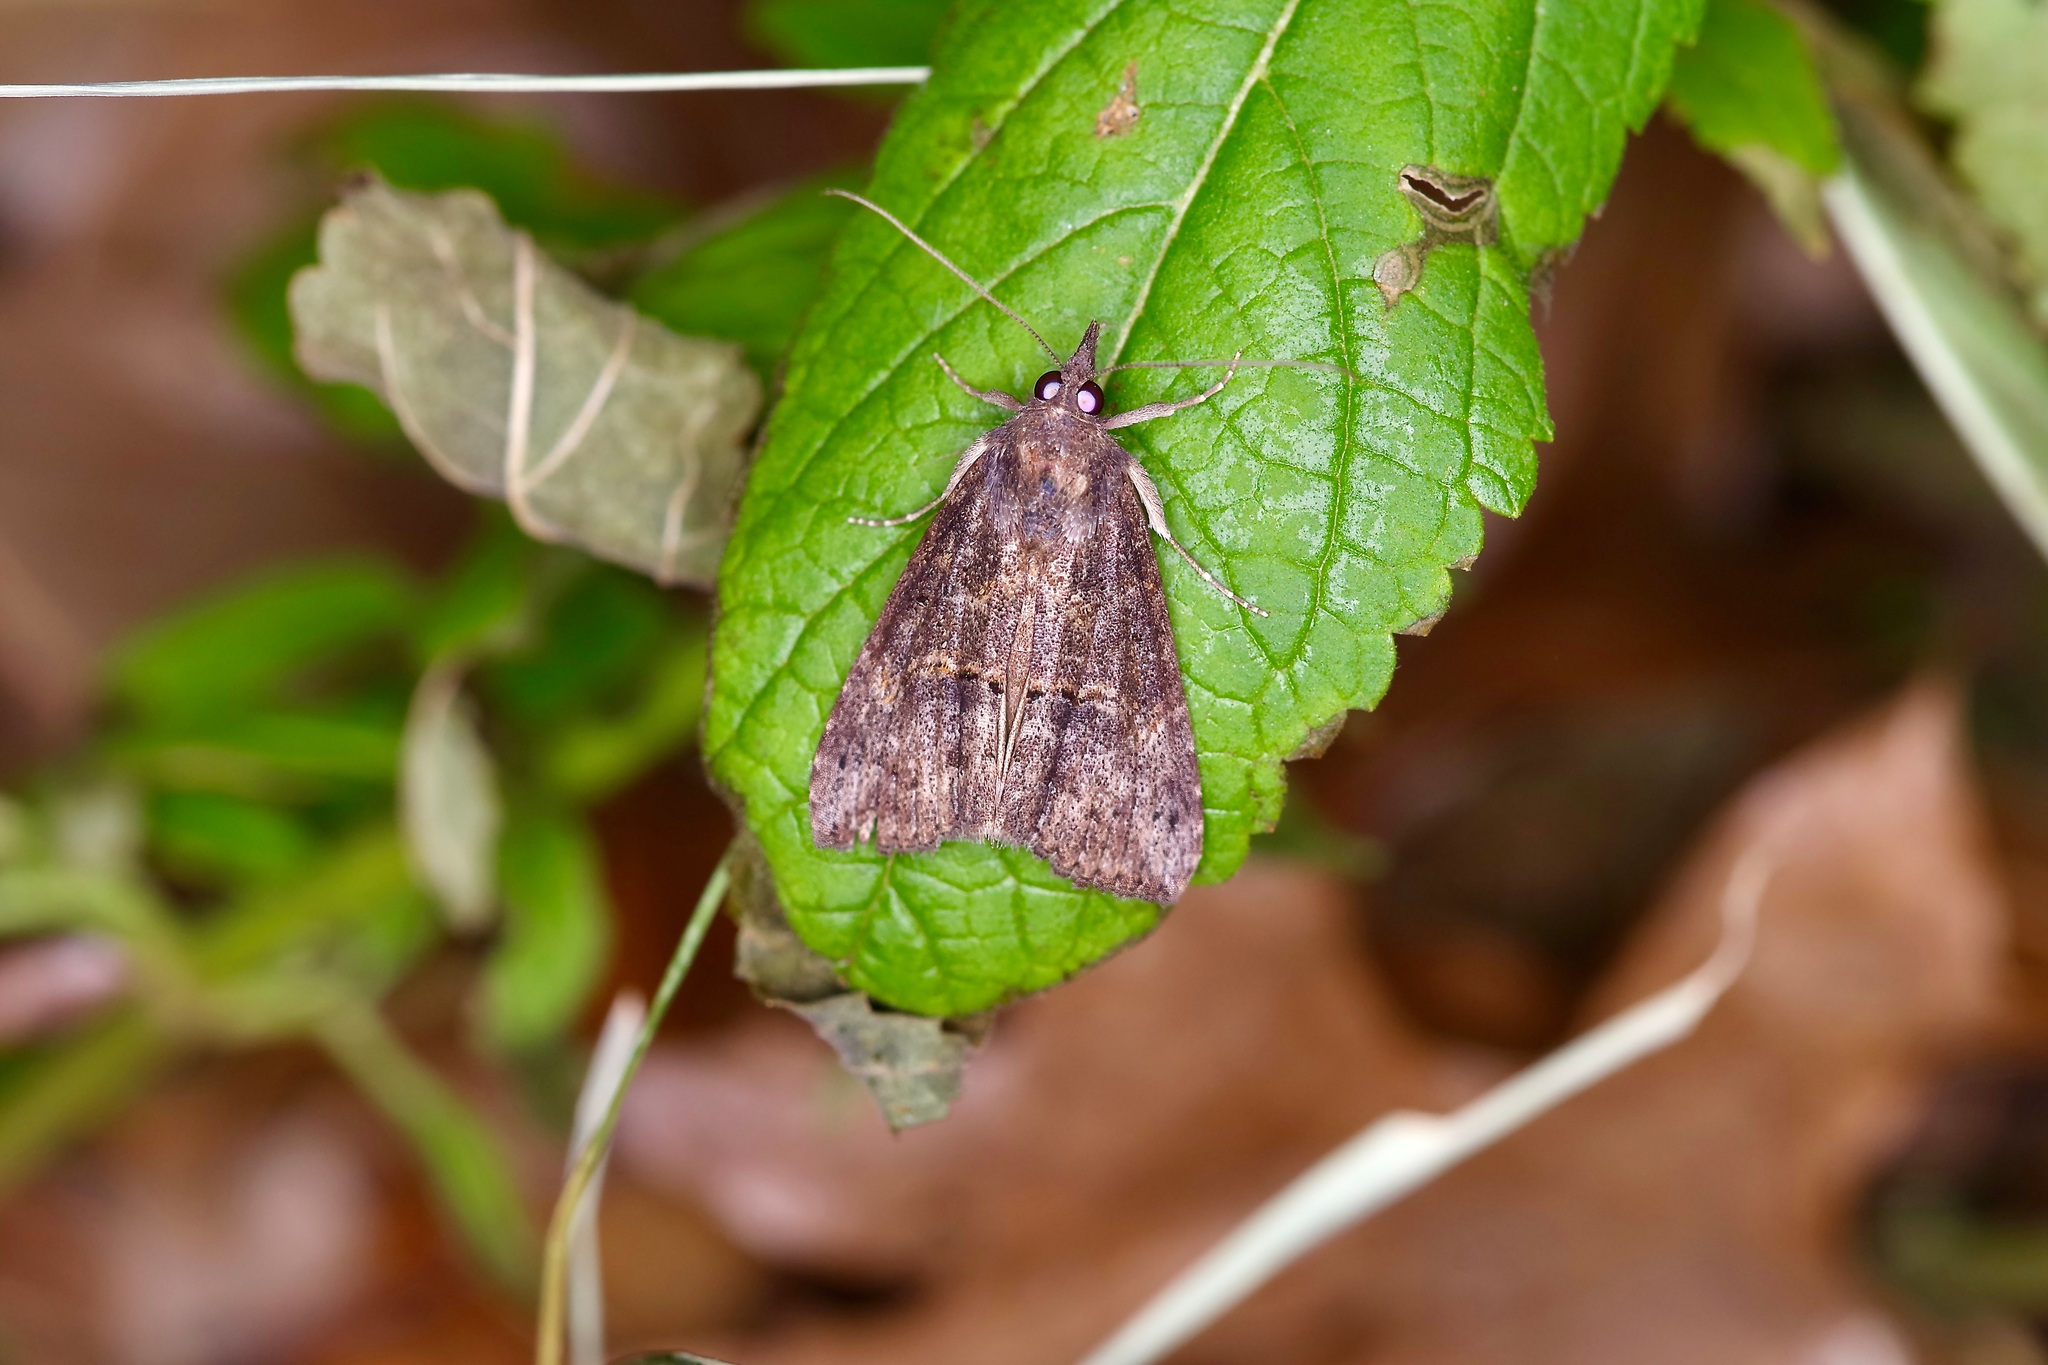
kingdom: Animalia
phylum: Arthropoda
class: Insecta
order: Lepidoptera
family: Erebidae
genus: Hypena
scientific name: Hypena scabra
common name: Green cloverworm
